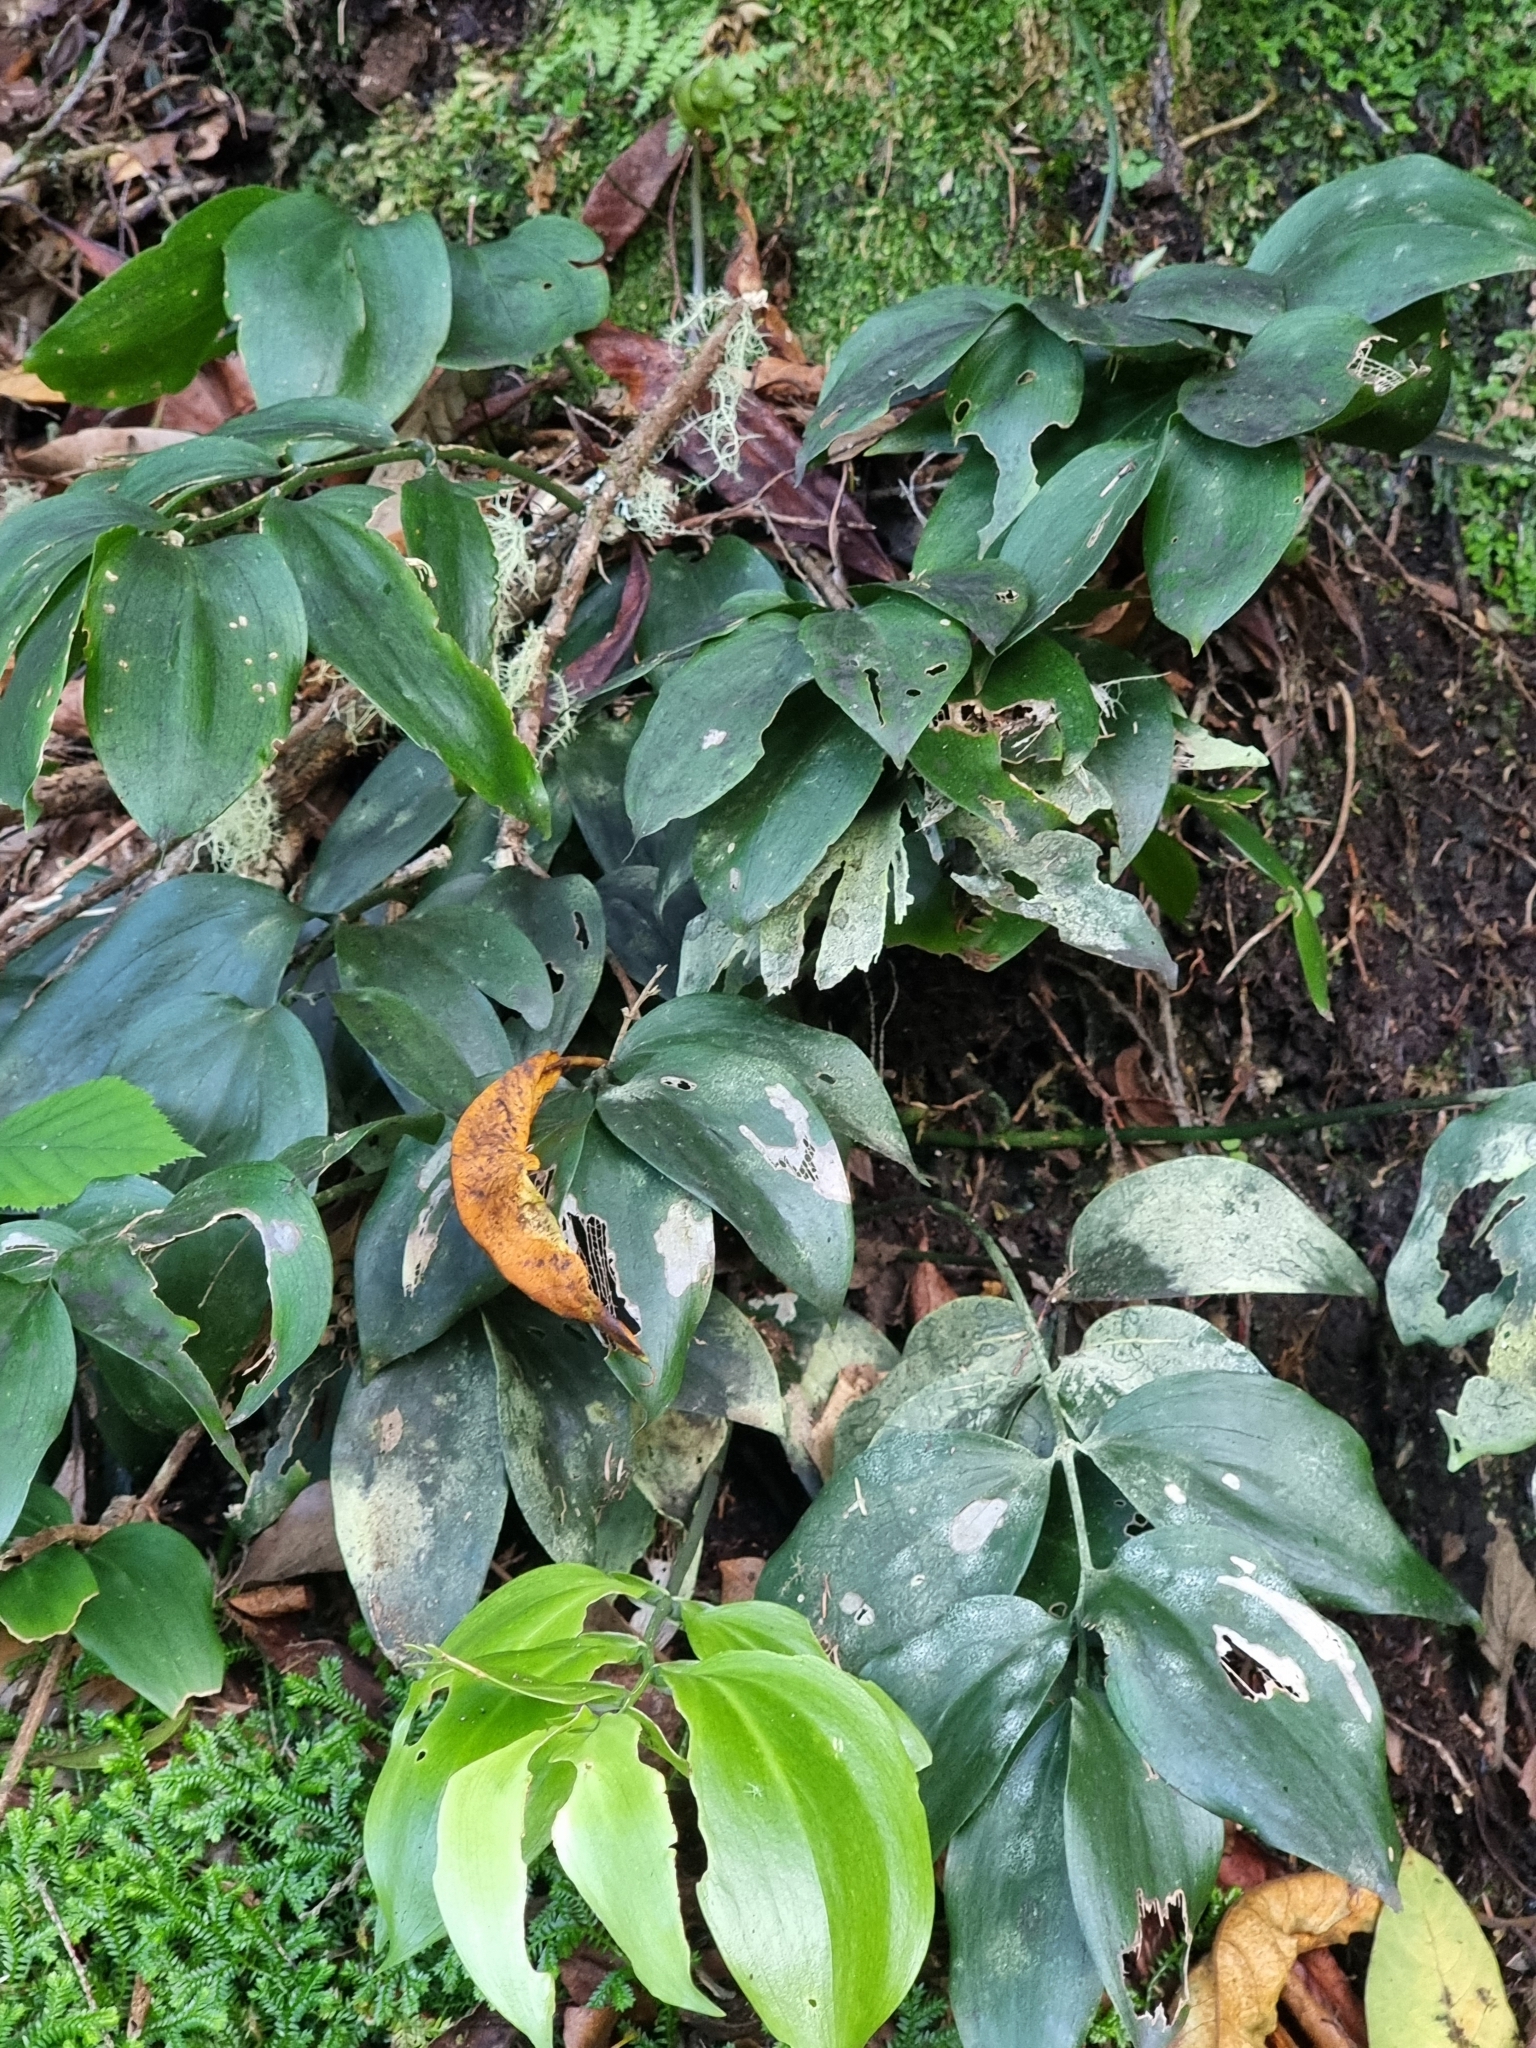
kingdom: Plantae
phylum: Tracheophyta
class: Liliopsida
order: Asparagales
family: Asparagaceae
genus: Ruscus
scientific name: Ruscus streptophyllus
